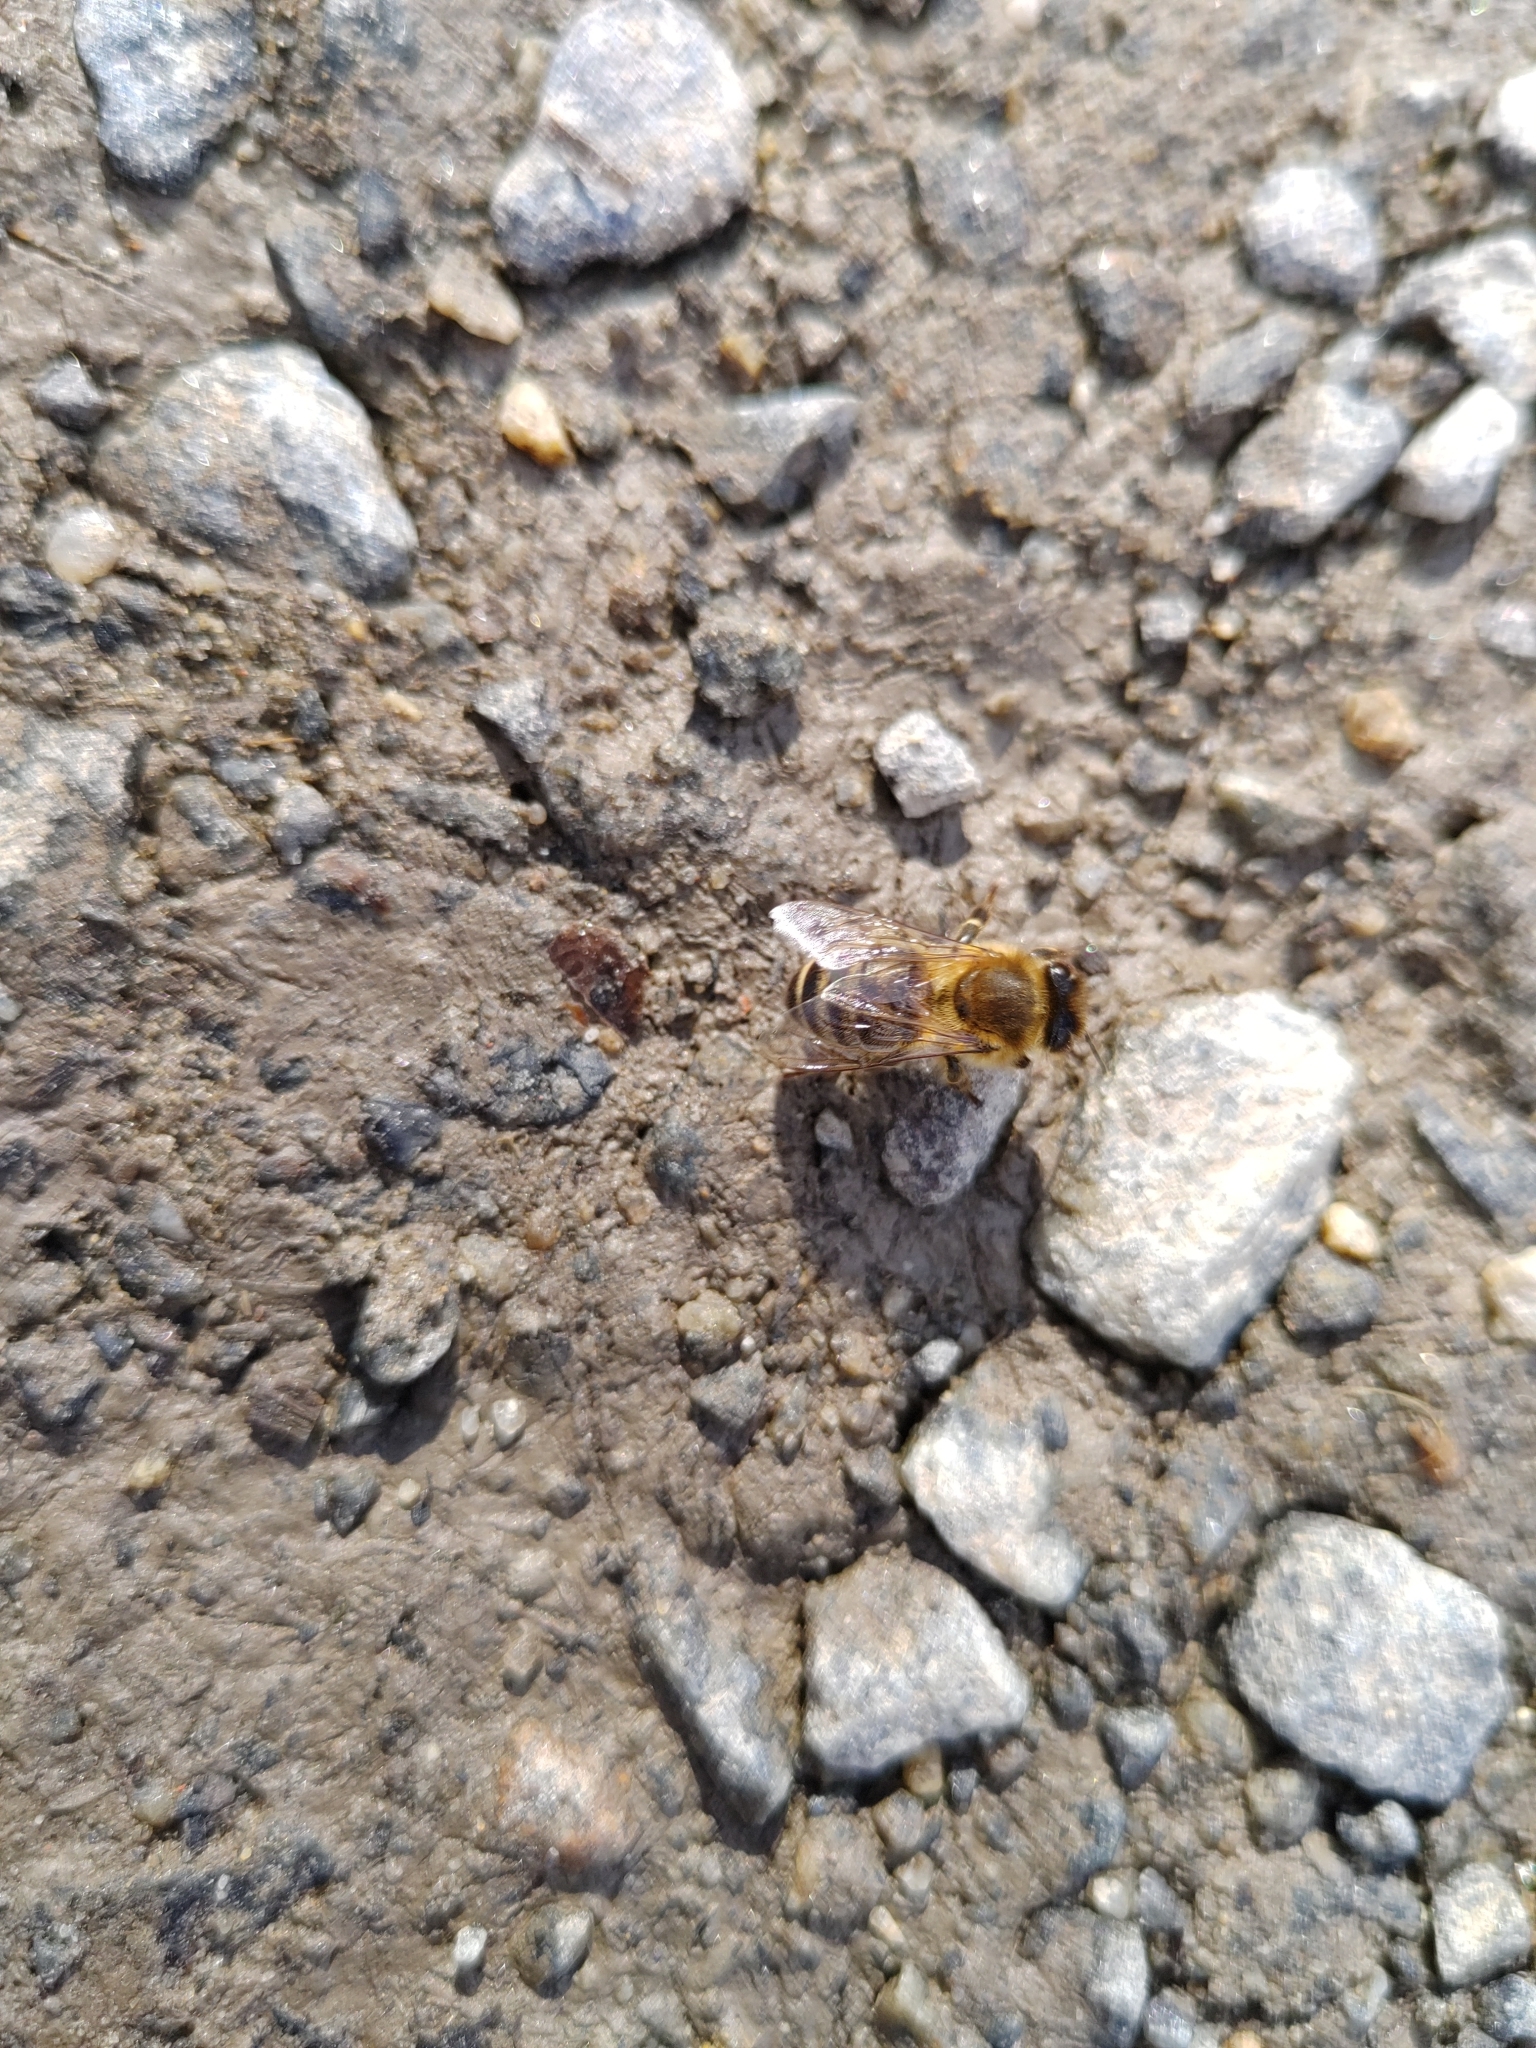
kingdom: Animalia
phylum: Arthropoda
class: Insecta
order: Hymenoptera
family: Apidae
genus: Apis
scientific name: Apis mellifera
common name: Honey bee
